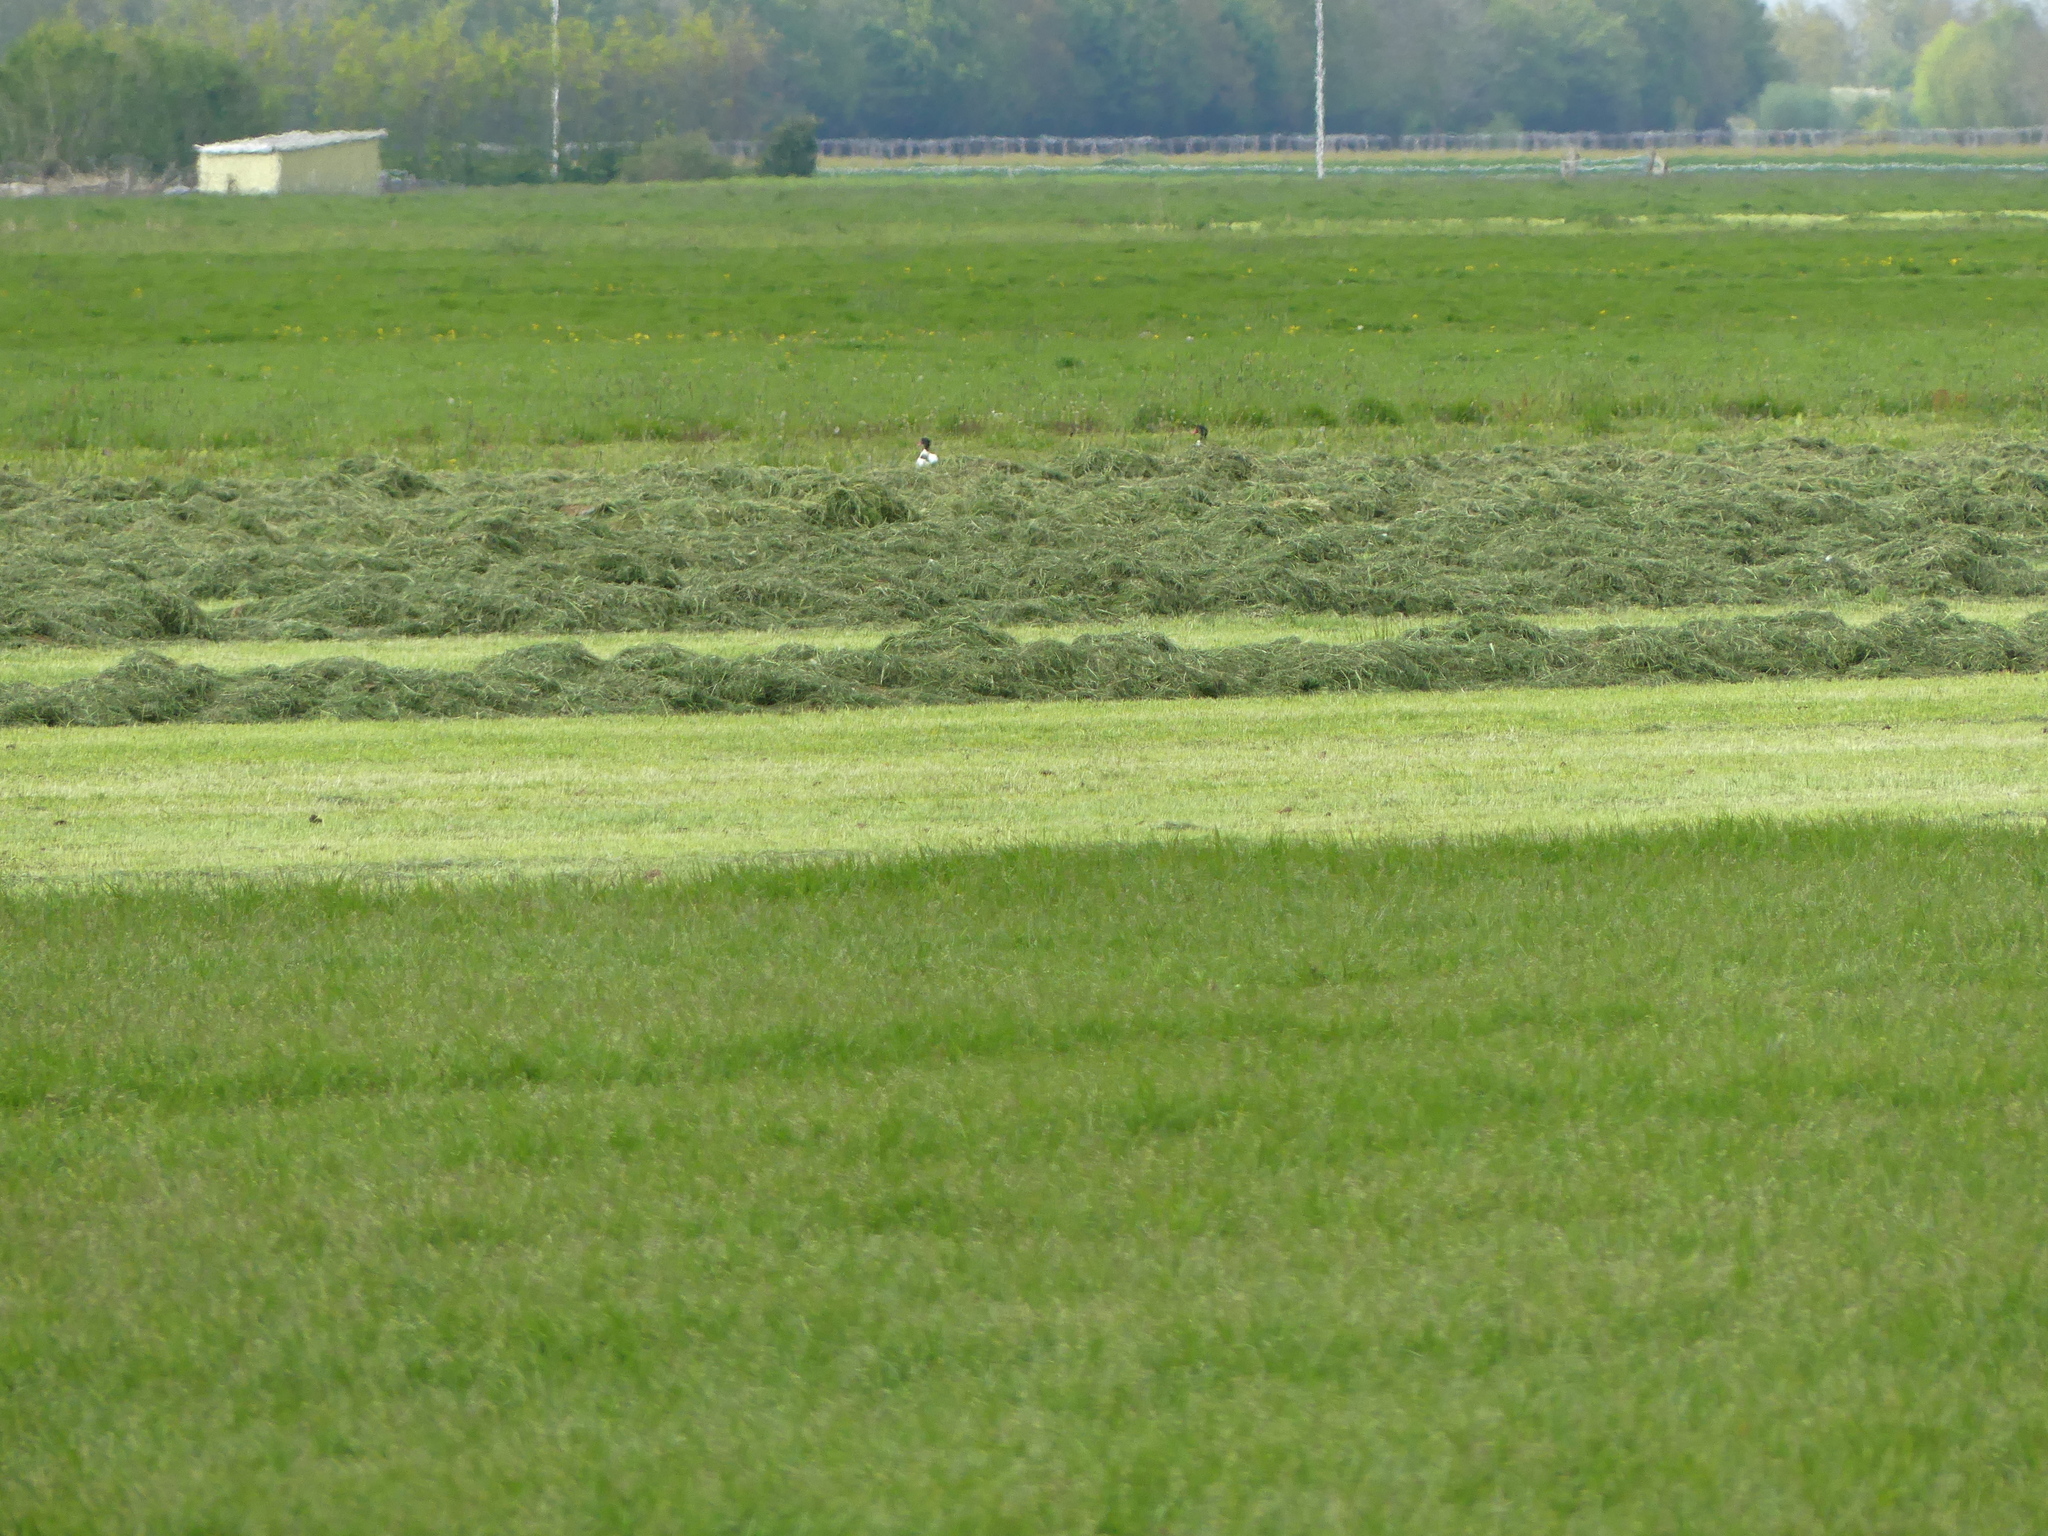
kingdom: Animalia
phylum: Chordata
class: Aves
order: Anseriformes
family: Anatidae
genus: Tadorna
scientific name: Tadorna tadorna
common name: Common shelduck
